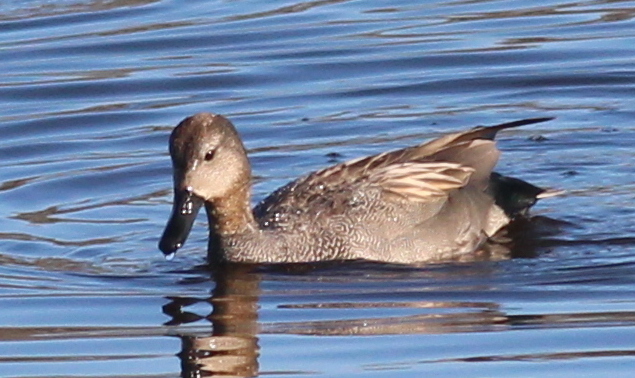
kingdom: Animalia
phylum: Chordata
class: Aves
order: Anseriformes
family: Anatidae
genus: Mareca
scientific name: Mareca strepera
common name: Gadwall
